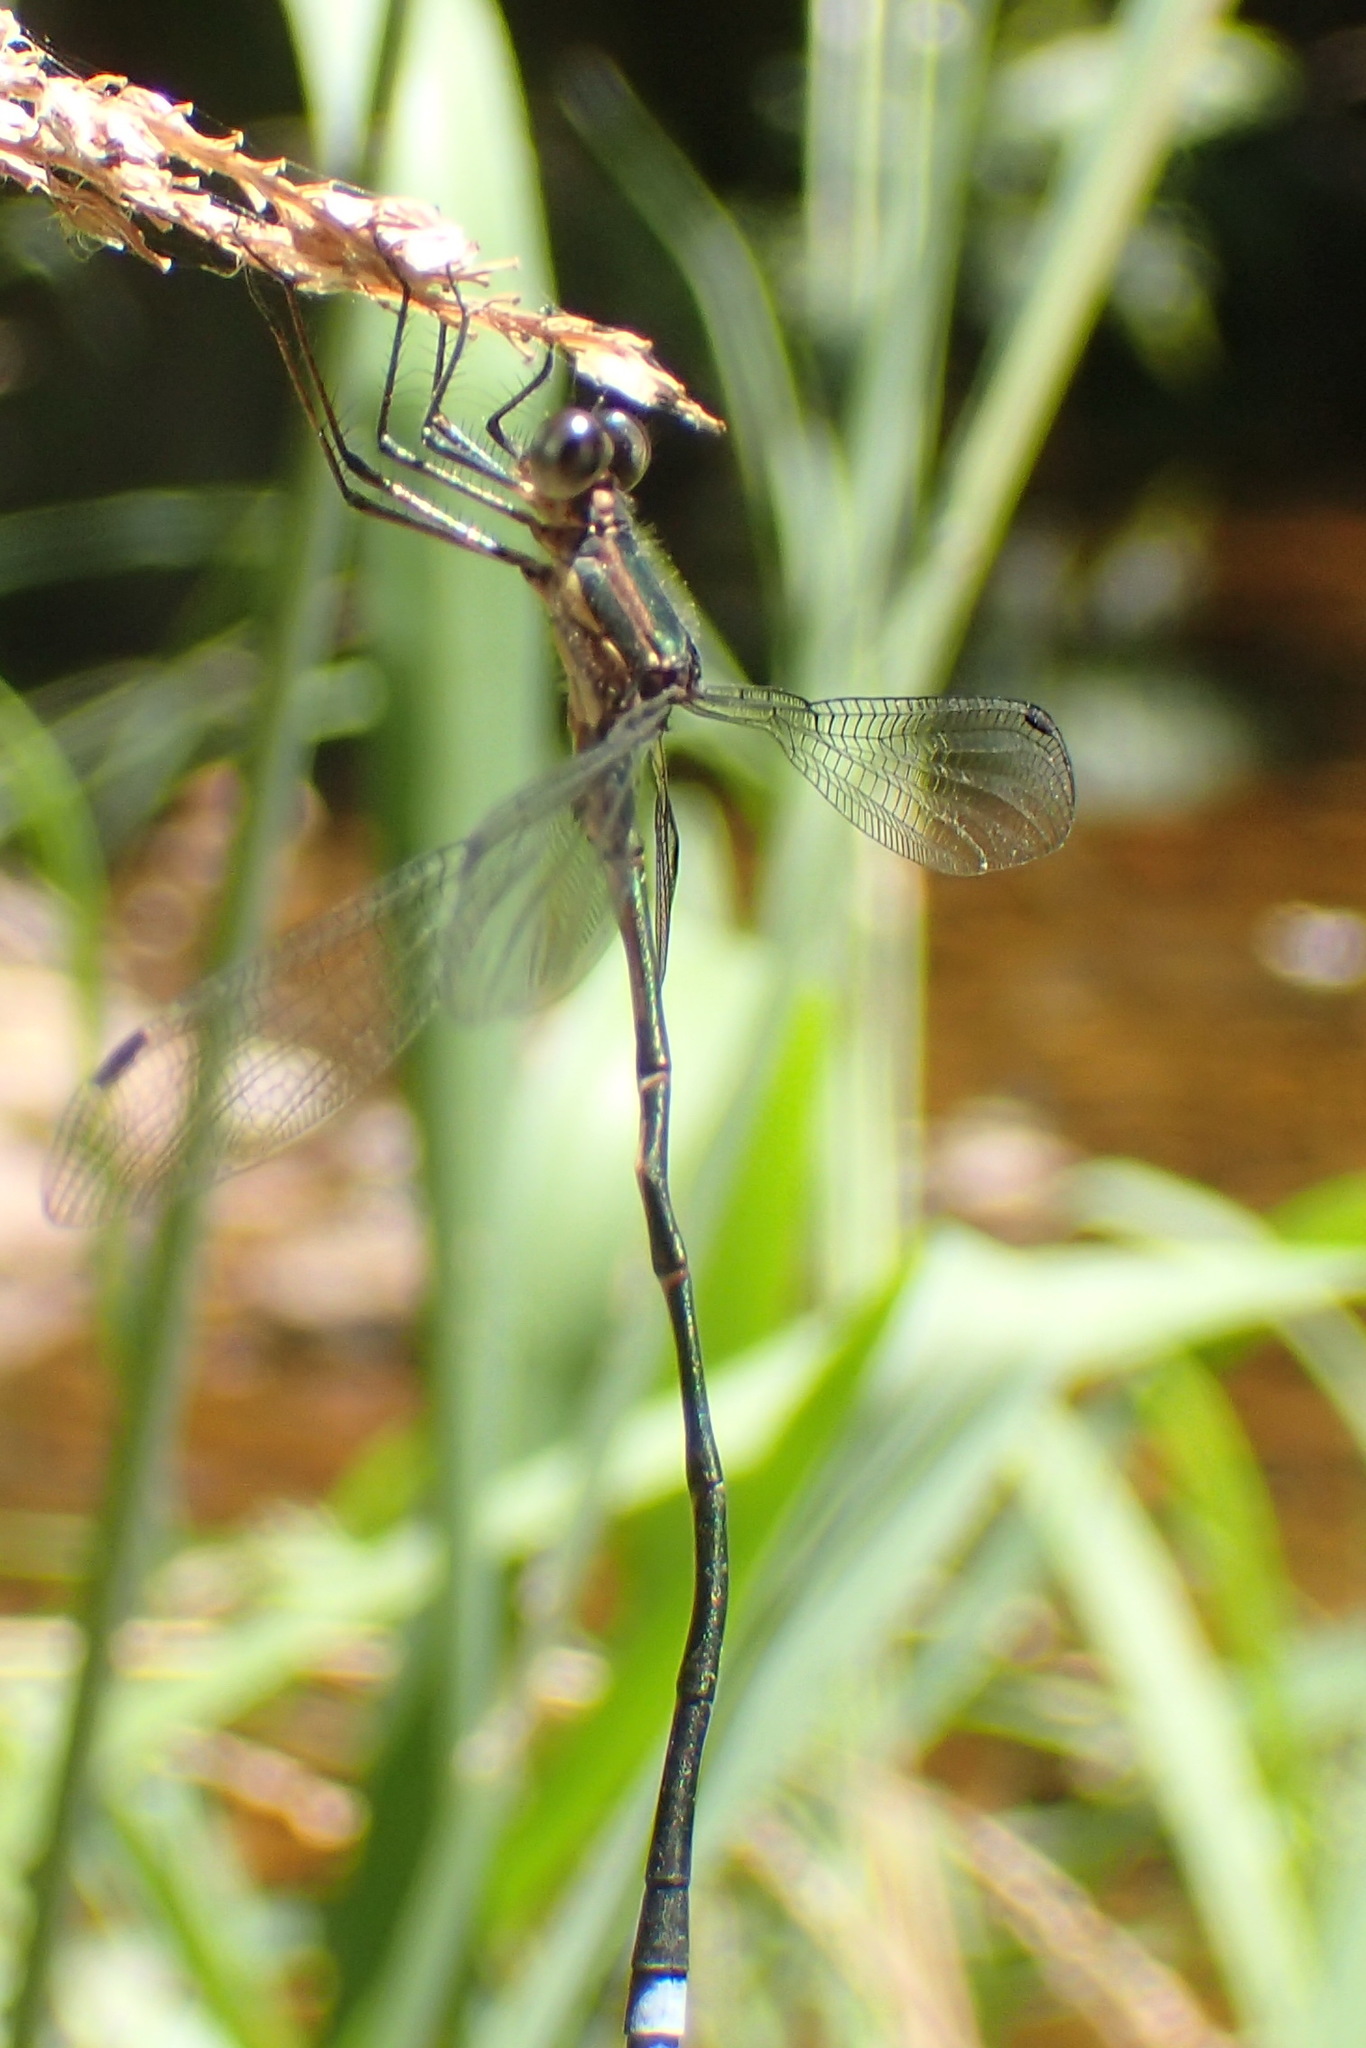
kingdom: Animalia
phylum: Arthropoda
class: Insecta
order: Odonata
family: Synlestidae
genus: Chlorolestes
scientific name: Chlorolestes tessellatus
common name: Forest malachite
